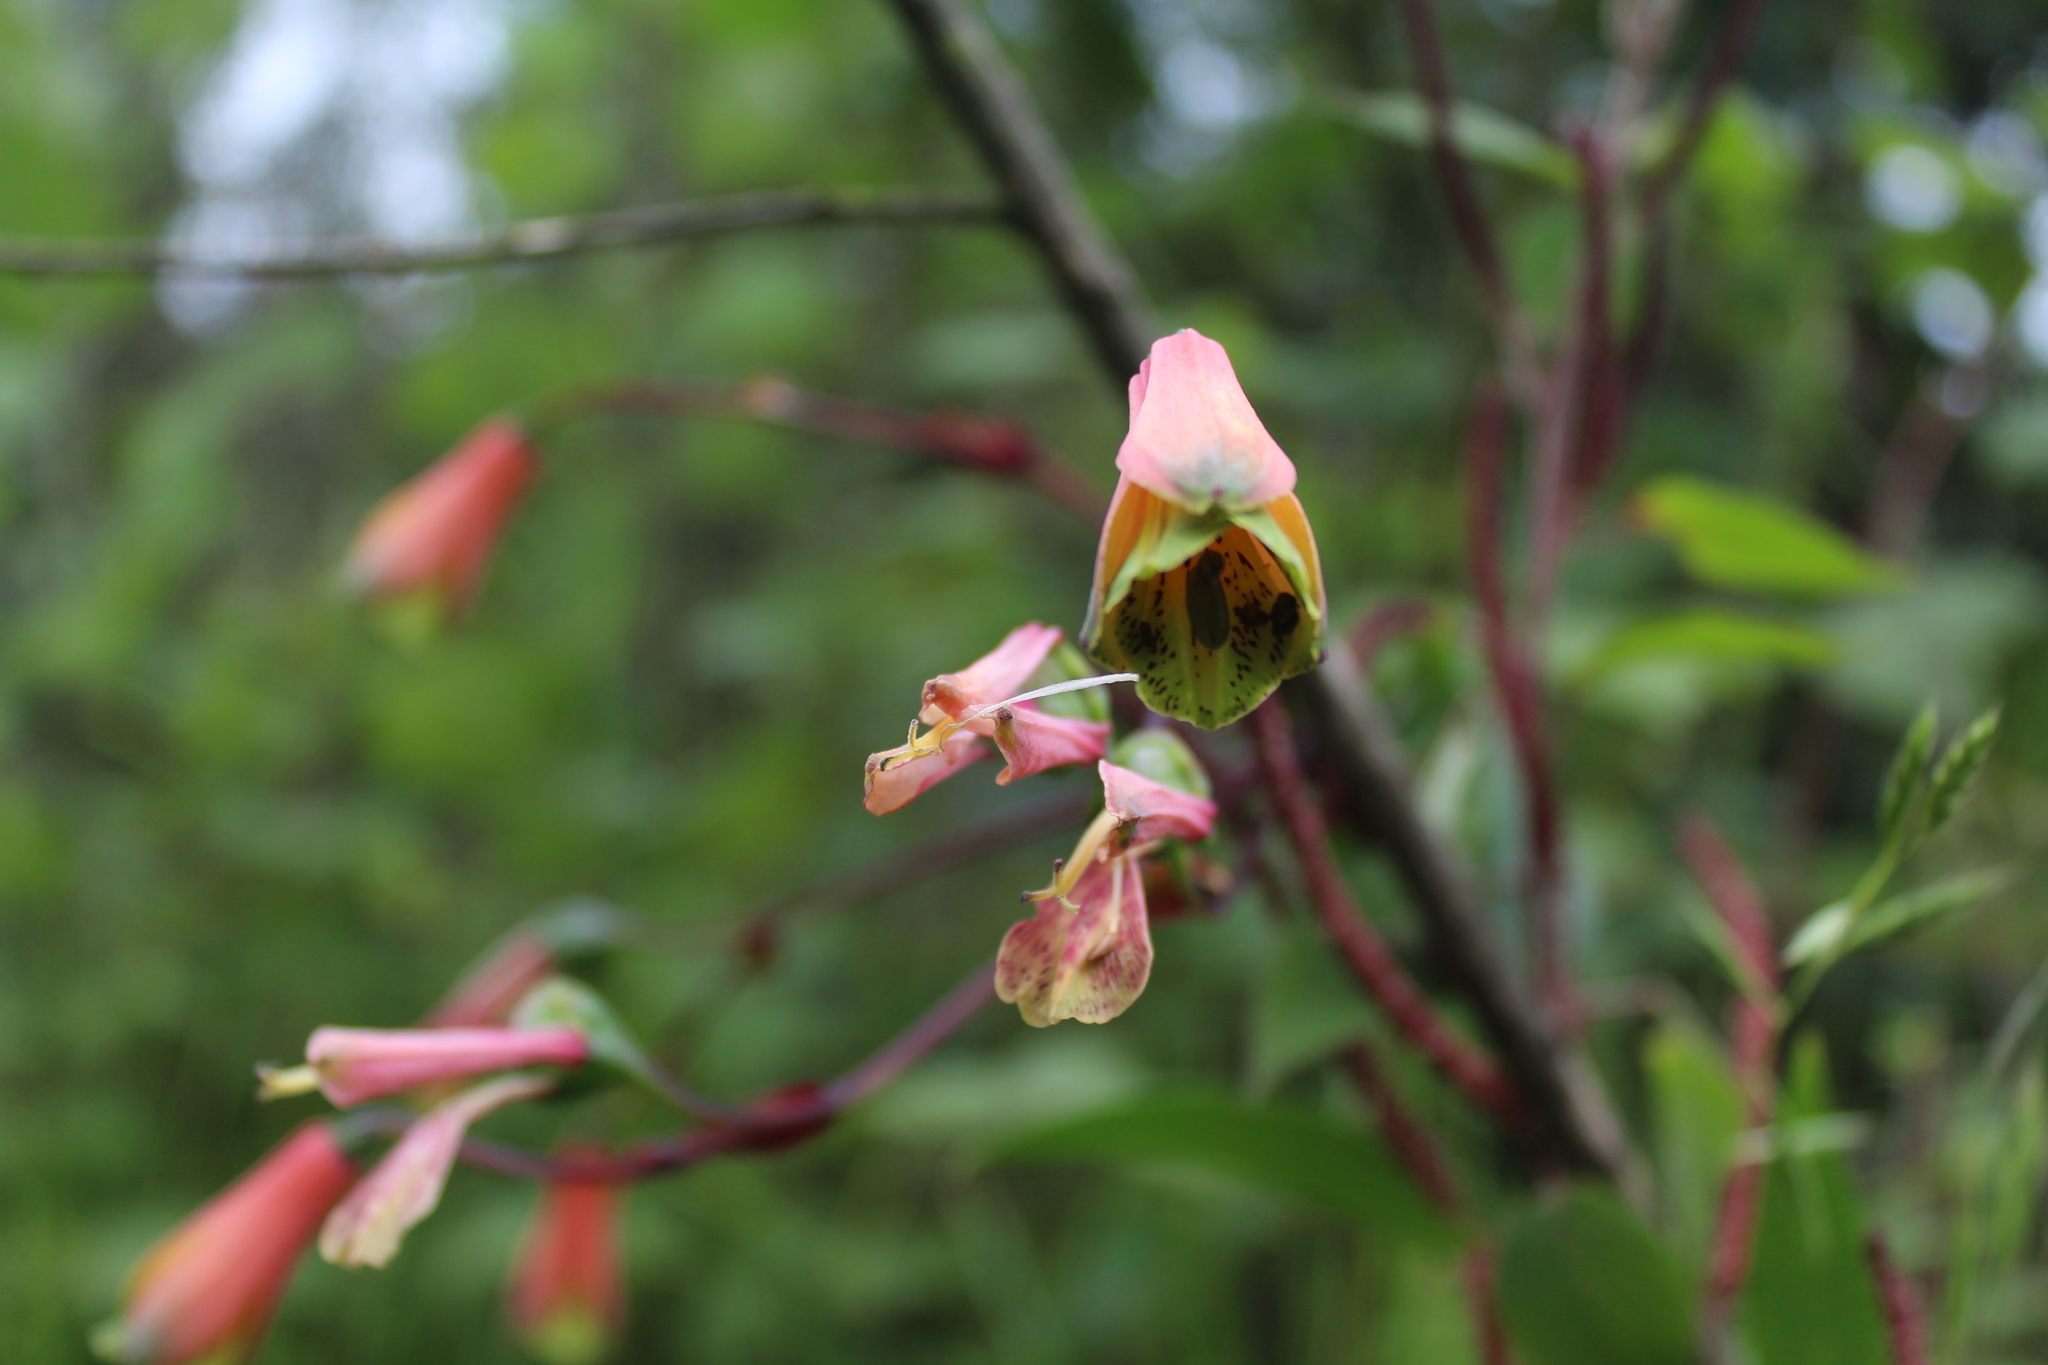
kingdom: Plantae
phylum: Tracheophyta
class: Liliopsida
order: Liliales
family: Alstroemeriaceae
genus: Bomarea
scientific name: Bomarea edulis
